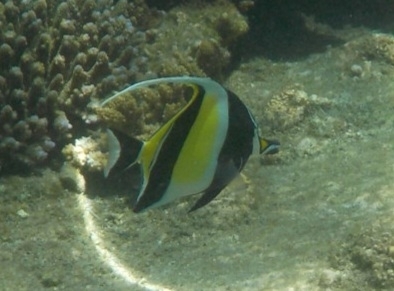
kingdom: Animalia
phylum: Chordata
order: Perciformes
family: Zanclidae
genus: Zanclus
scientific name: Zanclus cornutus
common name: Moorish idol
